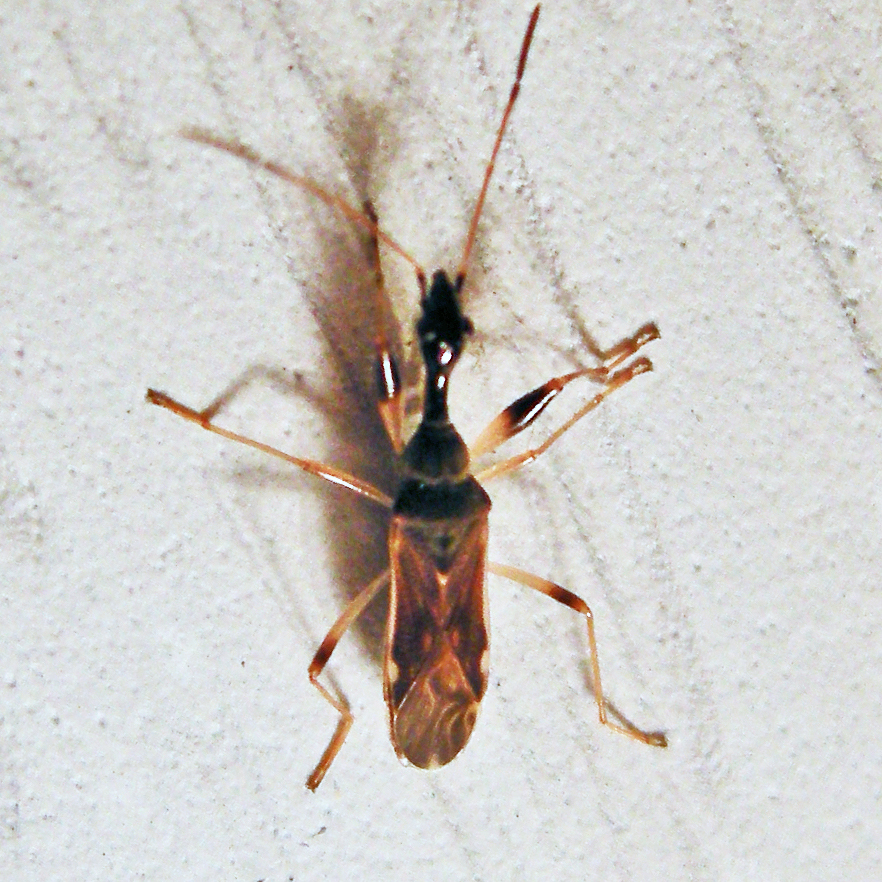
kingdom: Animalia
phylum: Arthropoda
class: Insecta
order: Hemiptera
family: Rhyparochromidae
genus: Myodocha
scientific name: Myodocha serripes
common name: Long-necked seed bug
